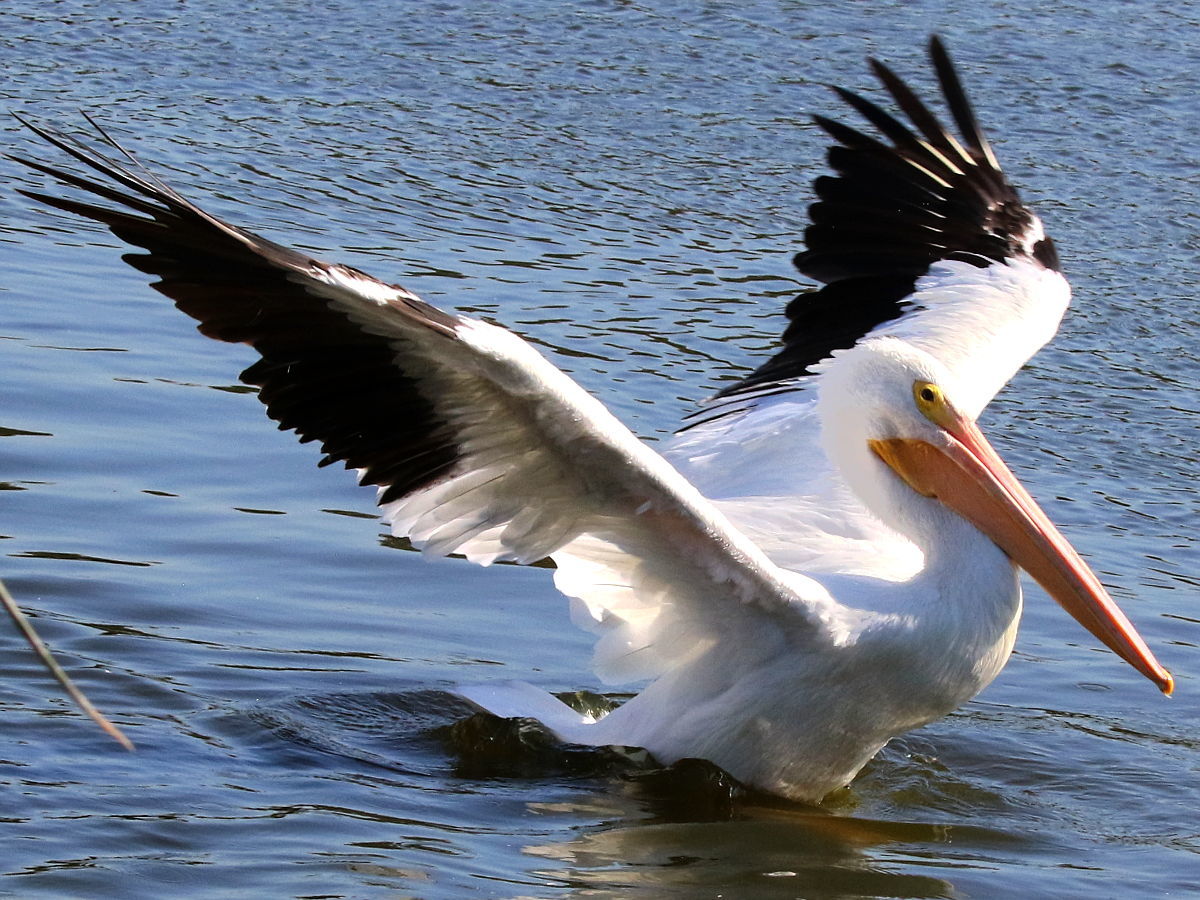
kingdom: Animalia
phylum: Chordata
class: Aves
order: Pelecaniformes
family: Pelecanidae
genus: Pelecanus
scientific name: Pelecanus erythrorhynchos
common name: American white pelican
